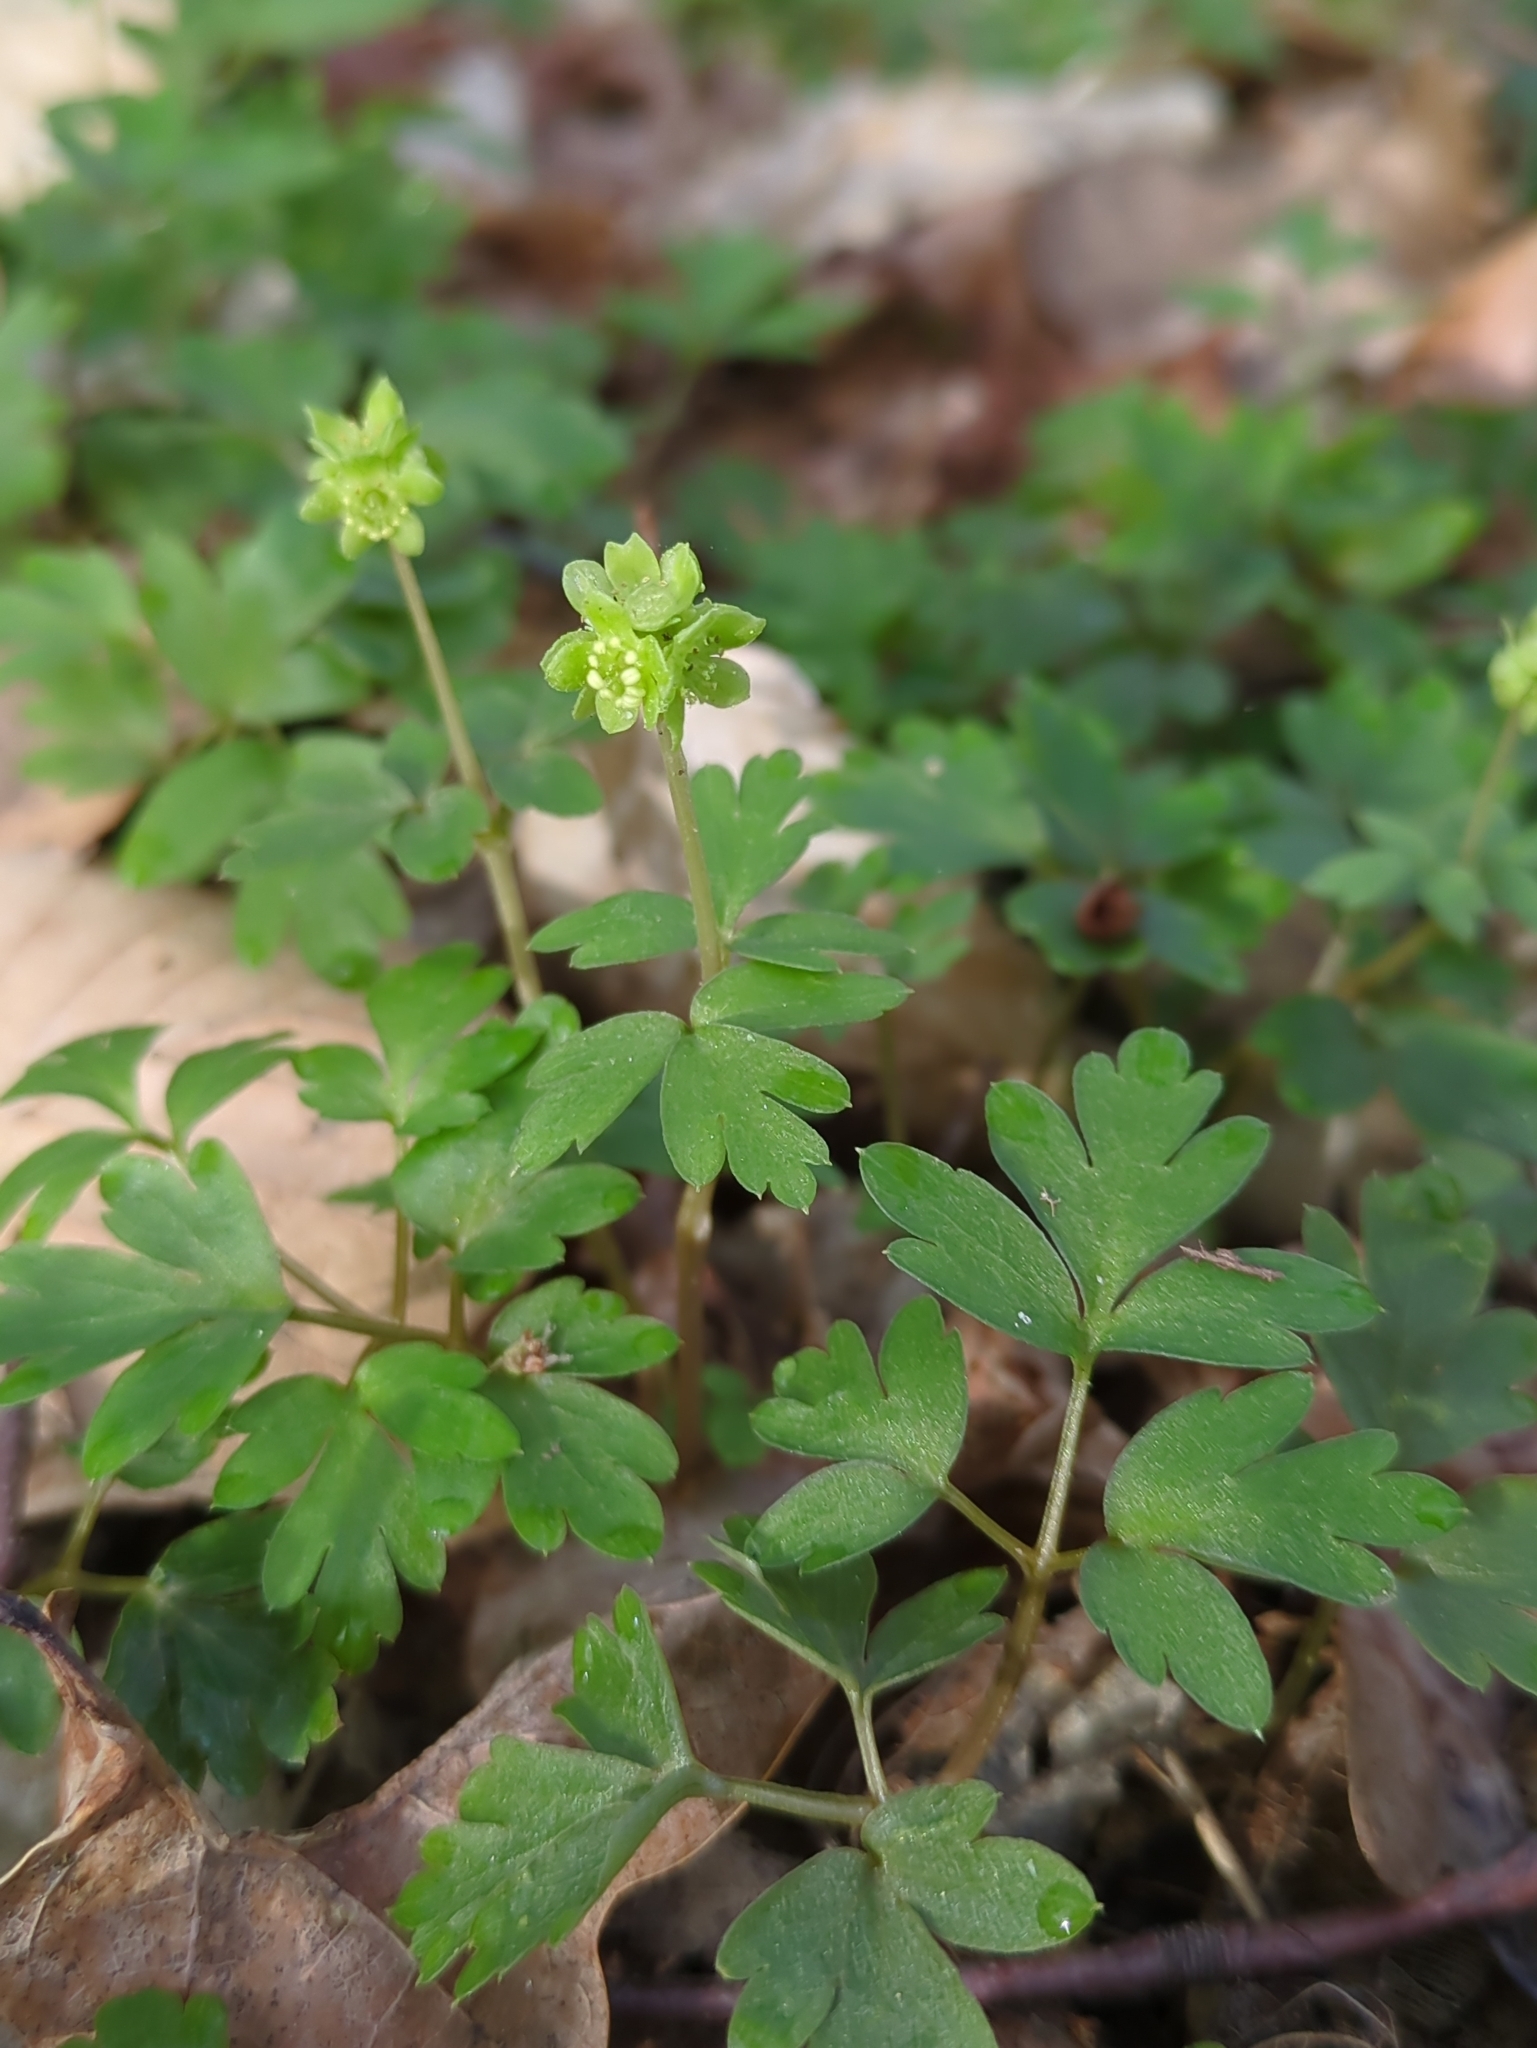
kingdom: Plantae
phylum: Tracheophyta
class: Magnoliopsida
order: Dipsacales
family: Viburnaceae
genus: Adoxa
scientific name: Adoxa moschatellina
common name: Moschatel
